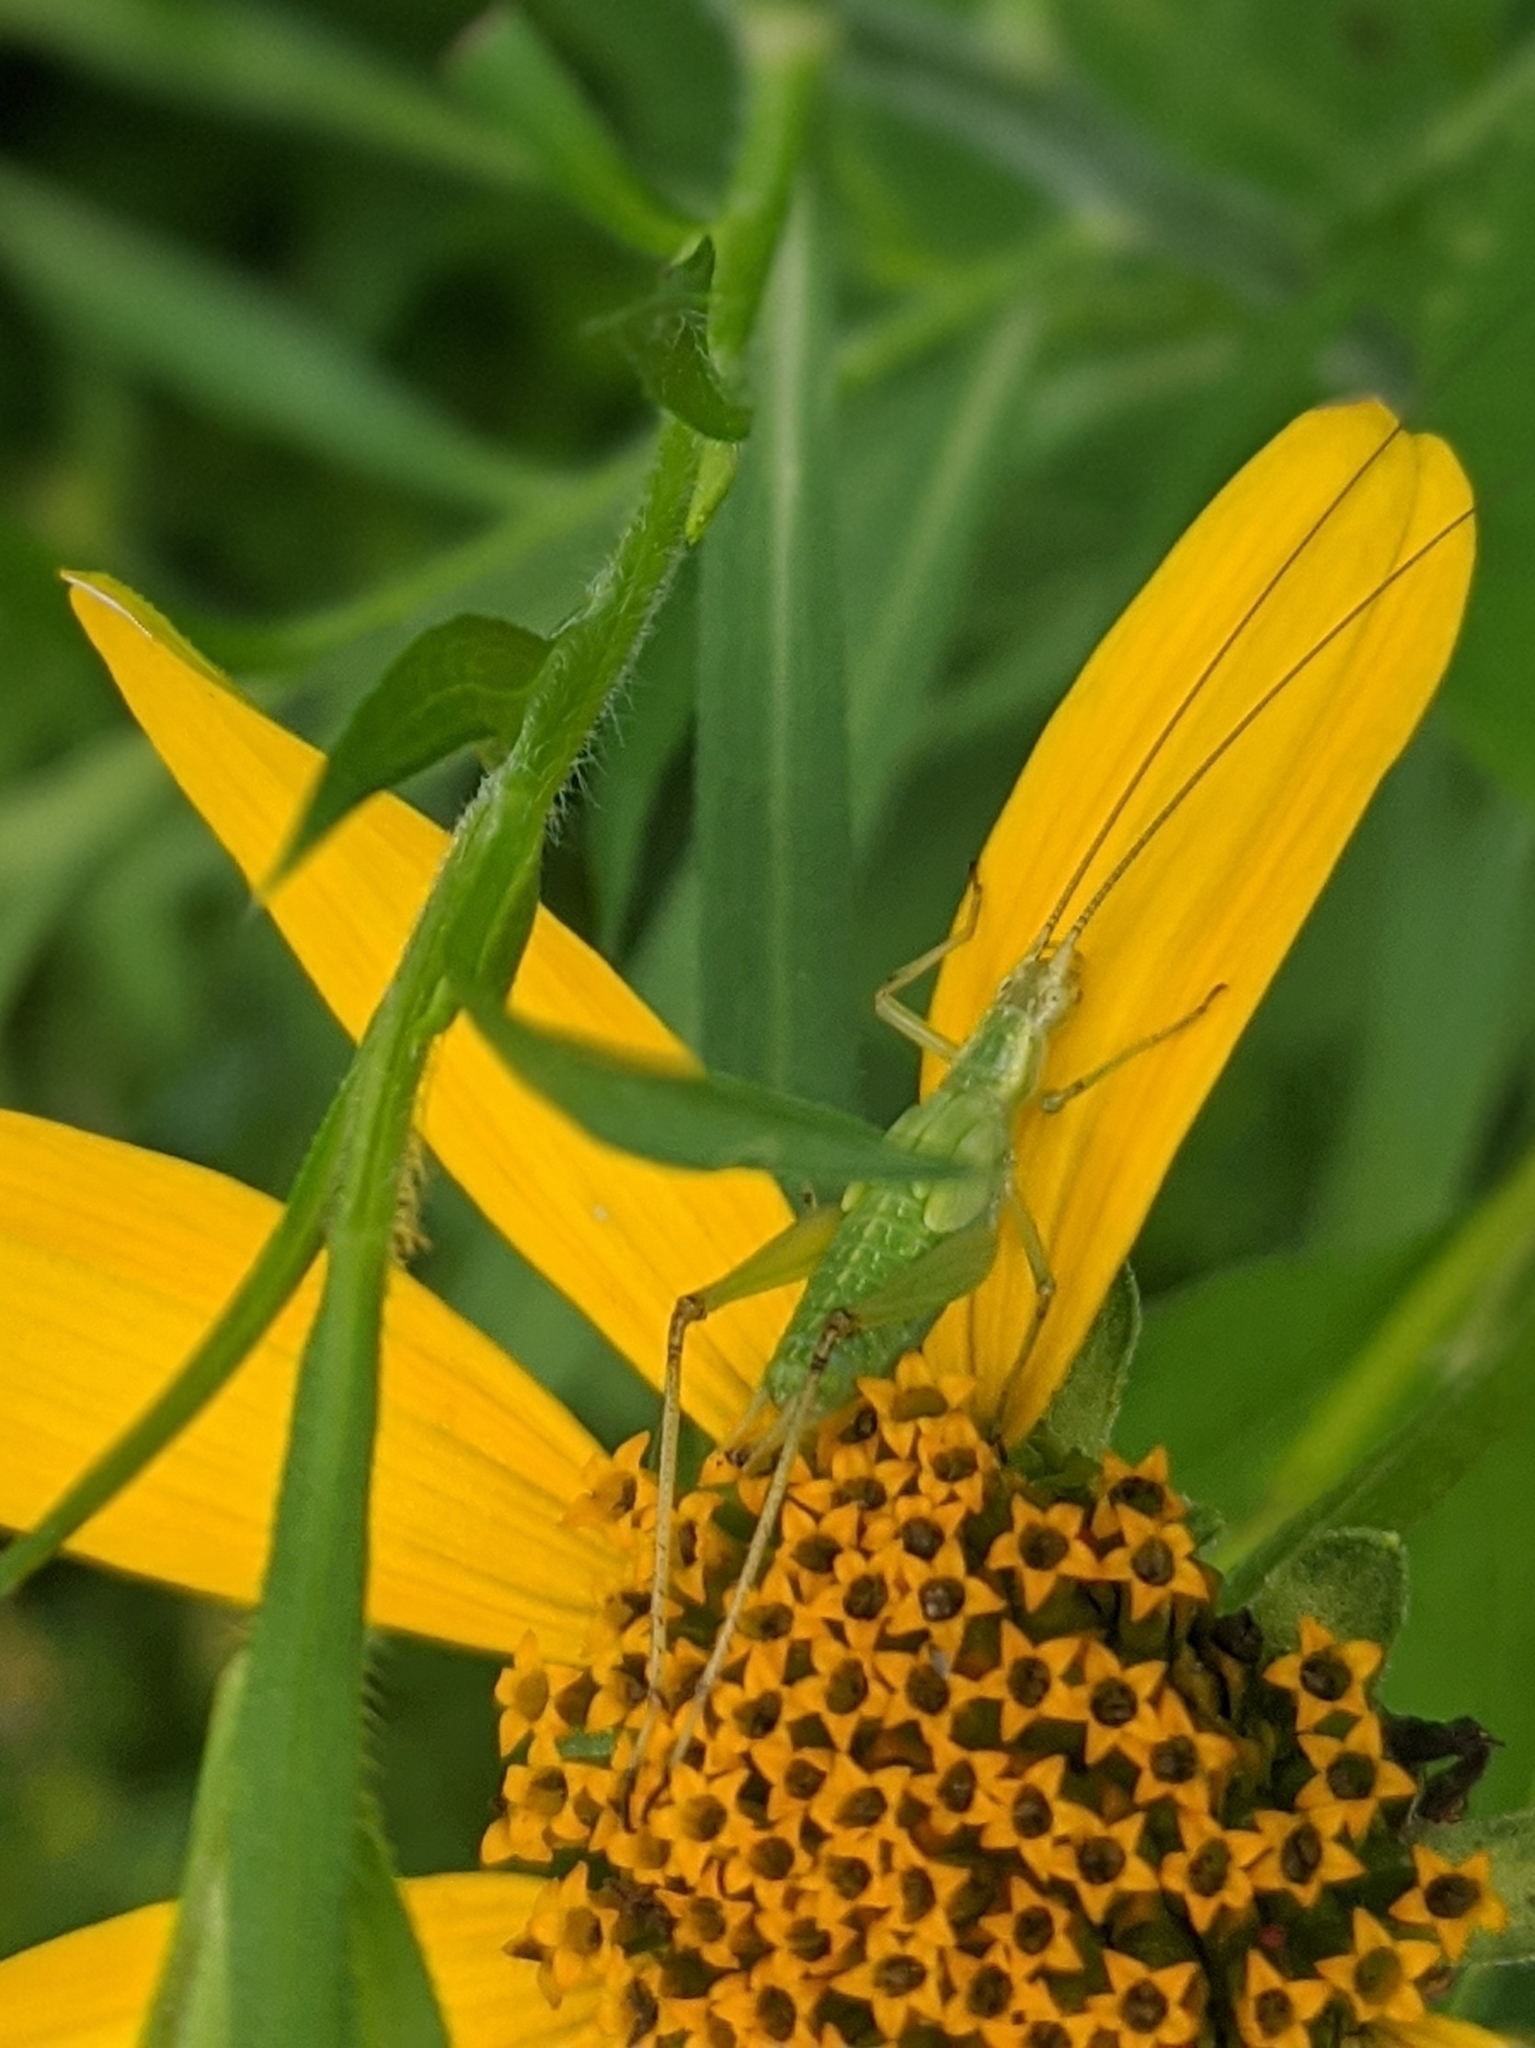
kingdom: Animalia
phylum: Arthropoda
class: Insecta
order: Orthoptera
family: Gryllidae
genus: Oecanthus
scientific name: Oecanthus nigricornis
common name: Black-horned tree cricket
